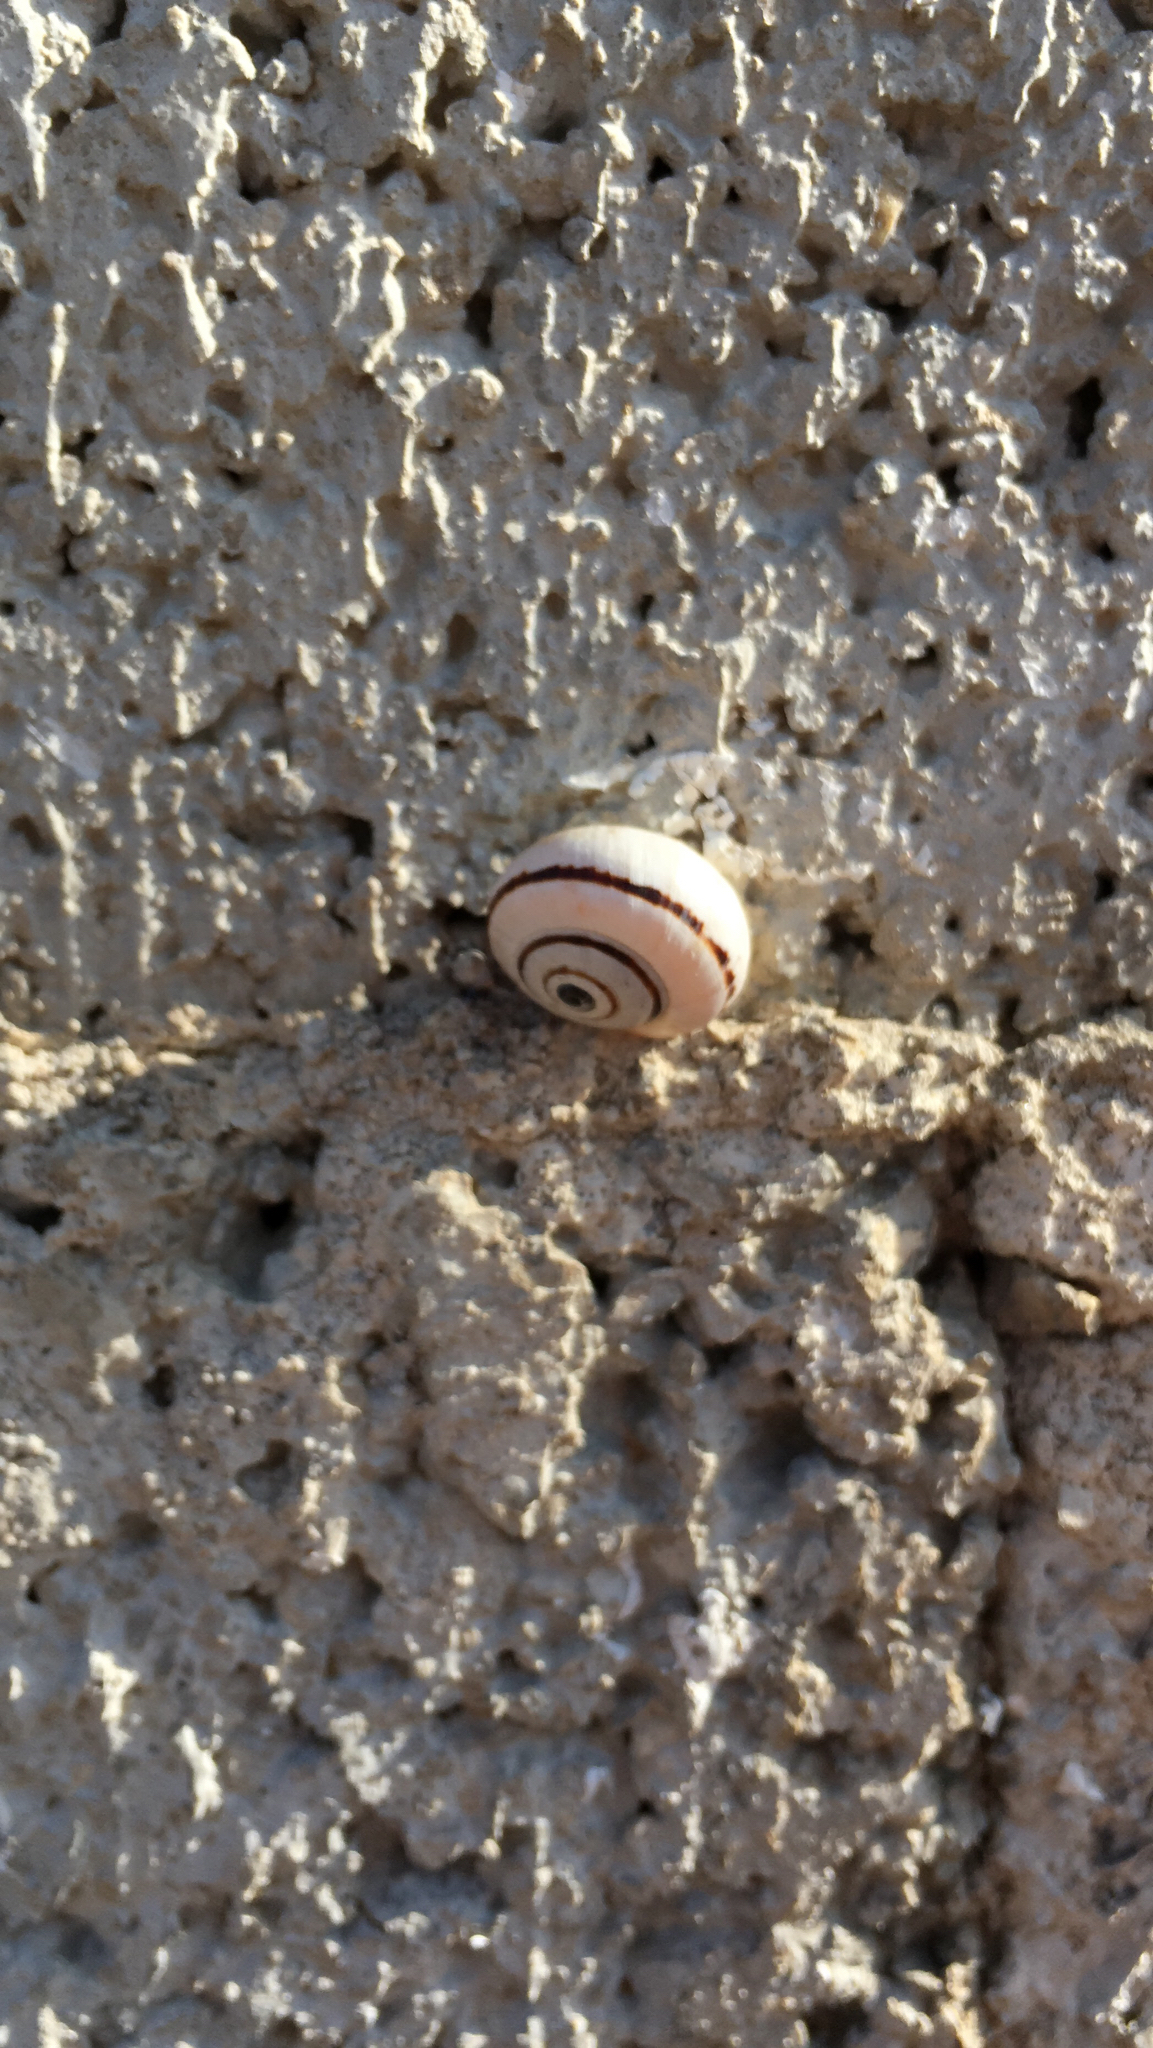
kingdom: Animalia
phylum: Mollusca
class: Gastropoda
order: Stylommatophora
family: Helicidae
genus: Theba
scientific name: Theba pisana
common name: White snail
